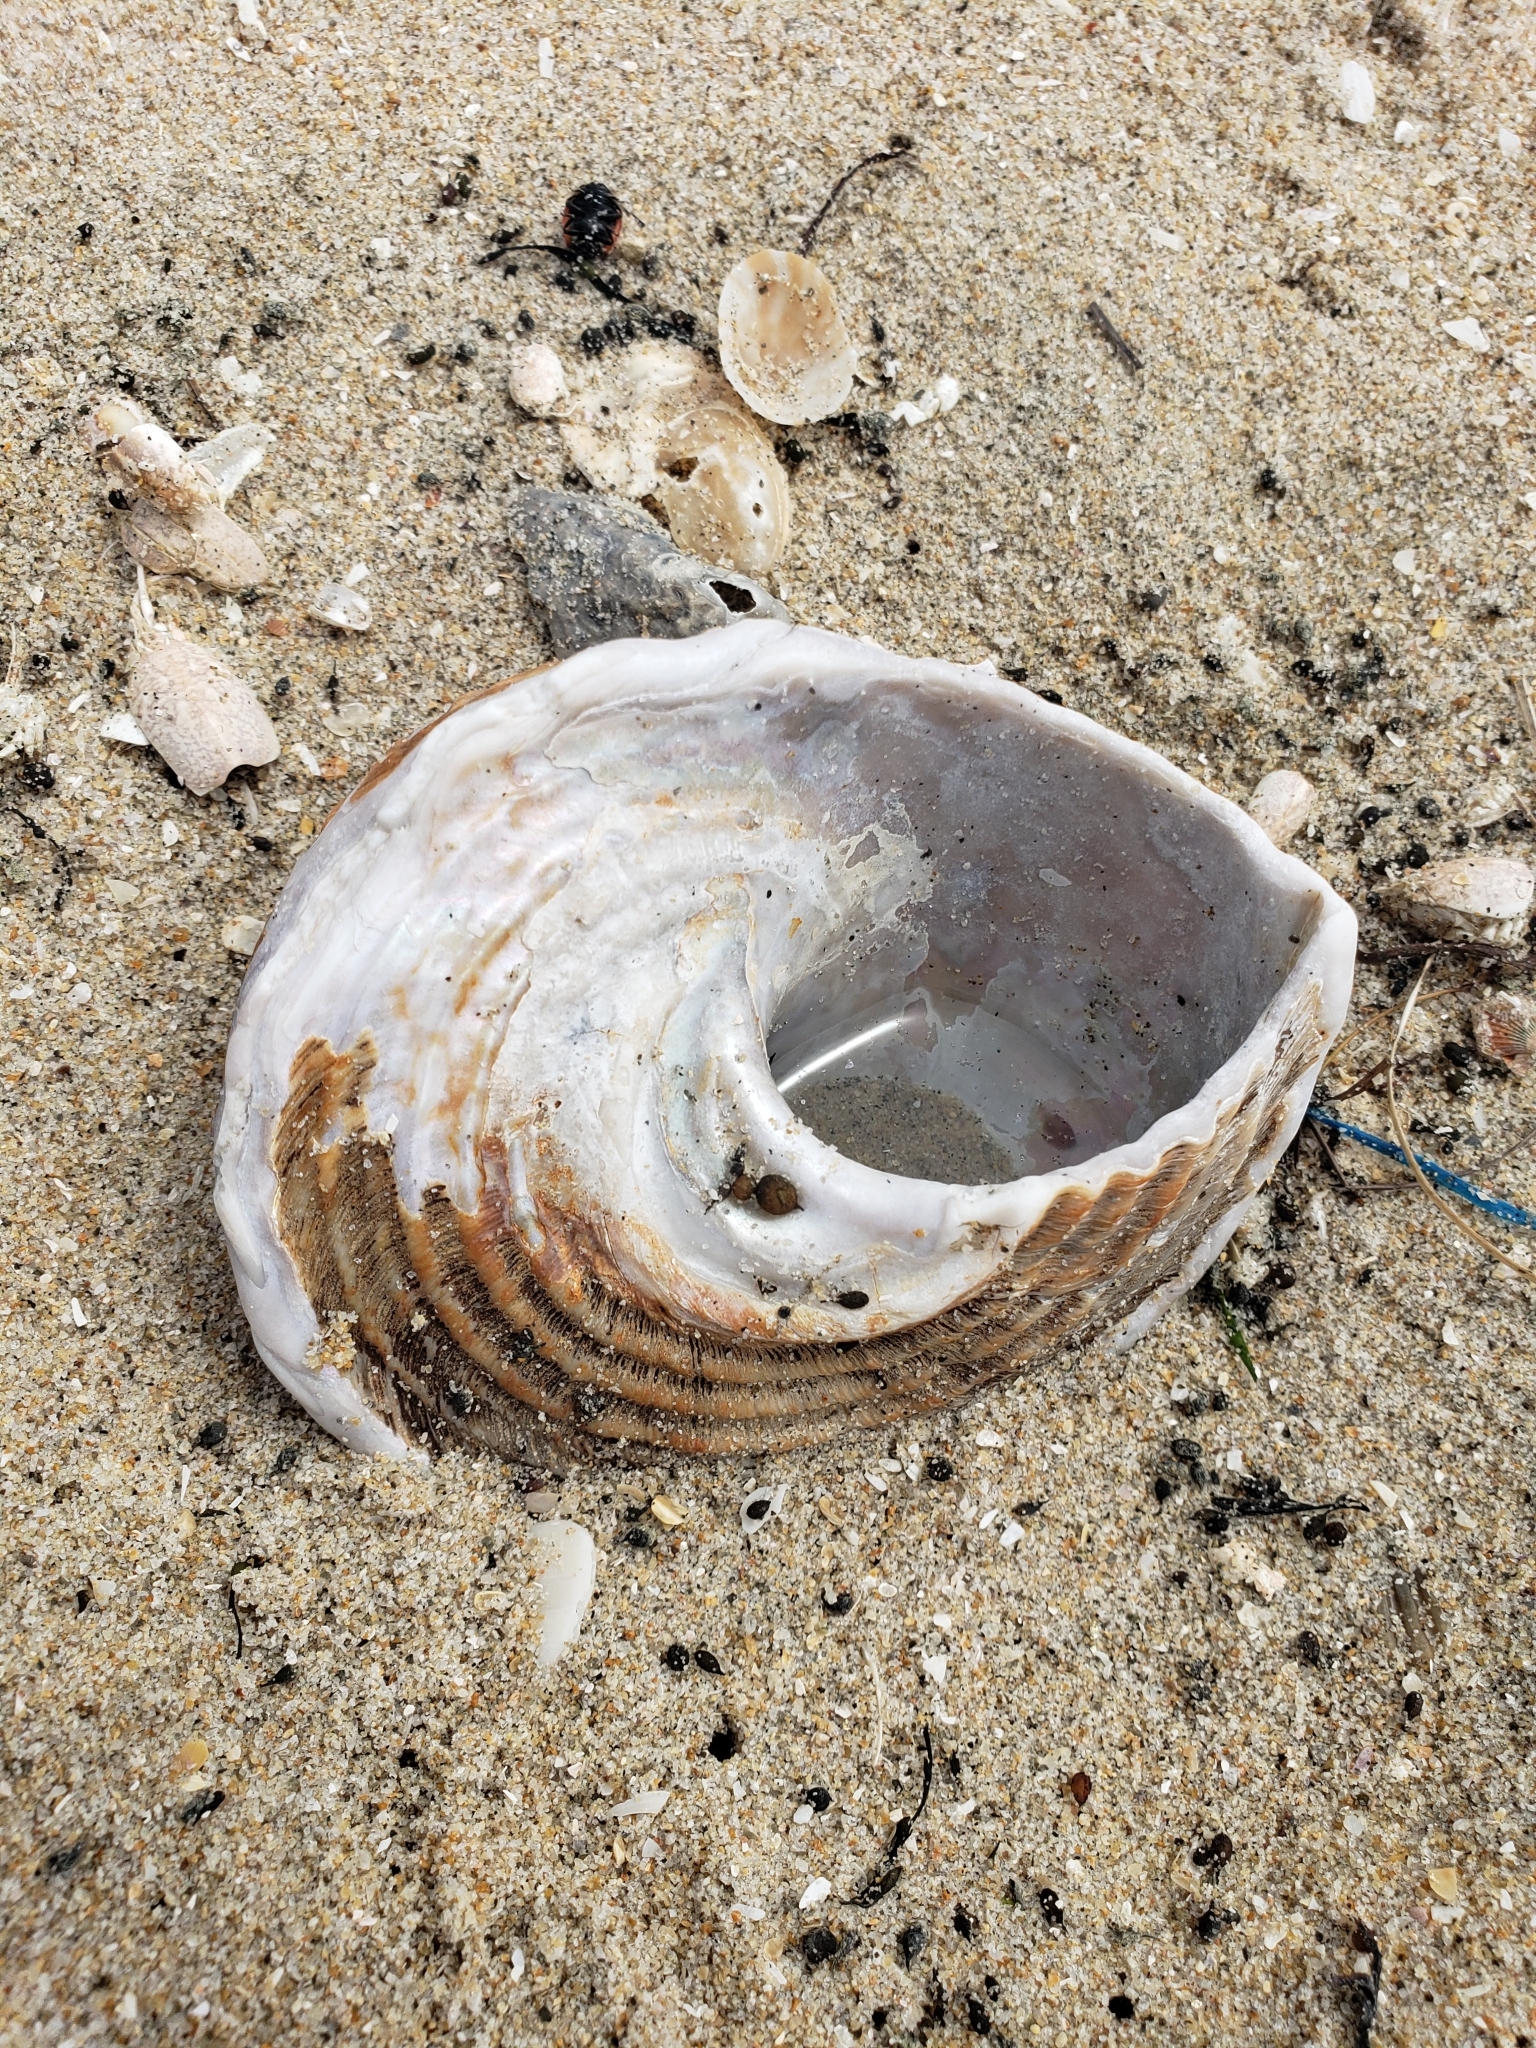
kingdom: Animalia
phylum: Mollusca
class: Gastropoda
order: Trochida
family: Turbinidae
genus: Megastraea
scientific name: Megastraea undosa
